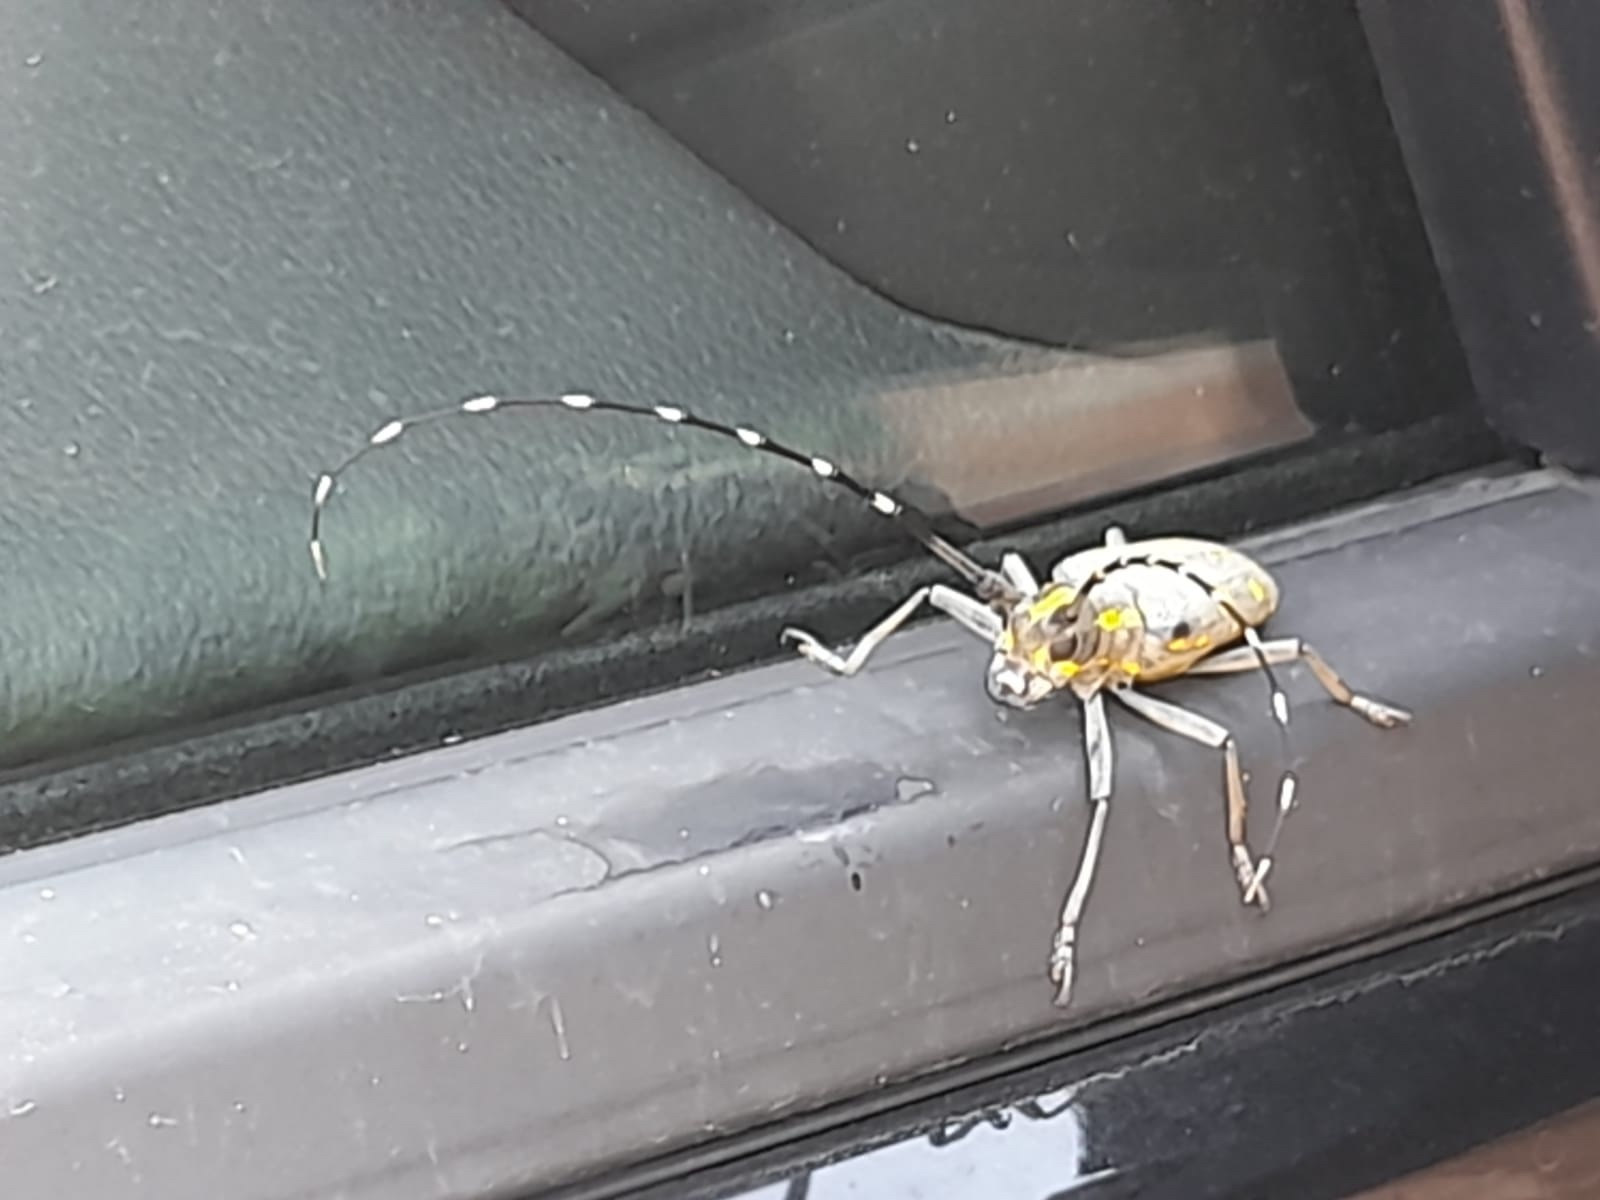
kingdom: Animalia
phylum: Arthropoda
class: Insecta
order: Coleoptera
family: Cerambycidae
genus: Psacothea
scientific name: Psacothea hilaris
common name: Yellow-spotted longicorn beetle
